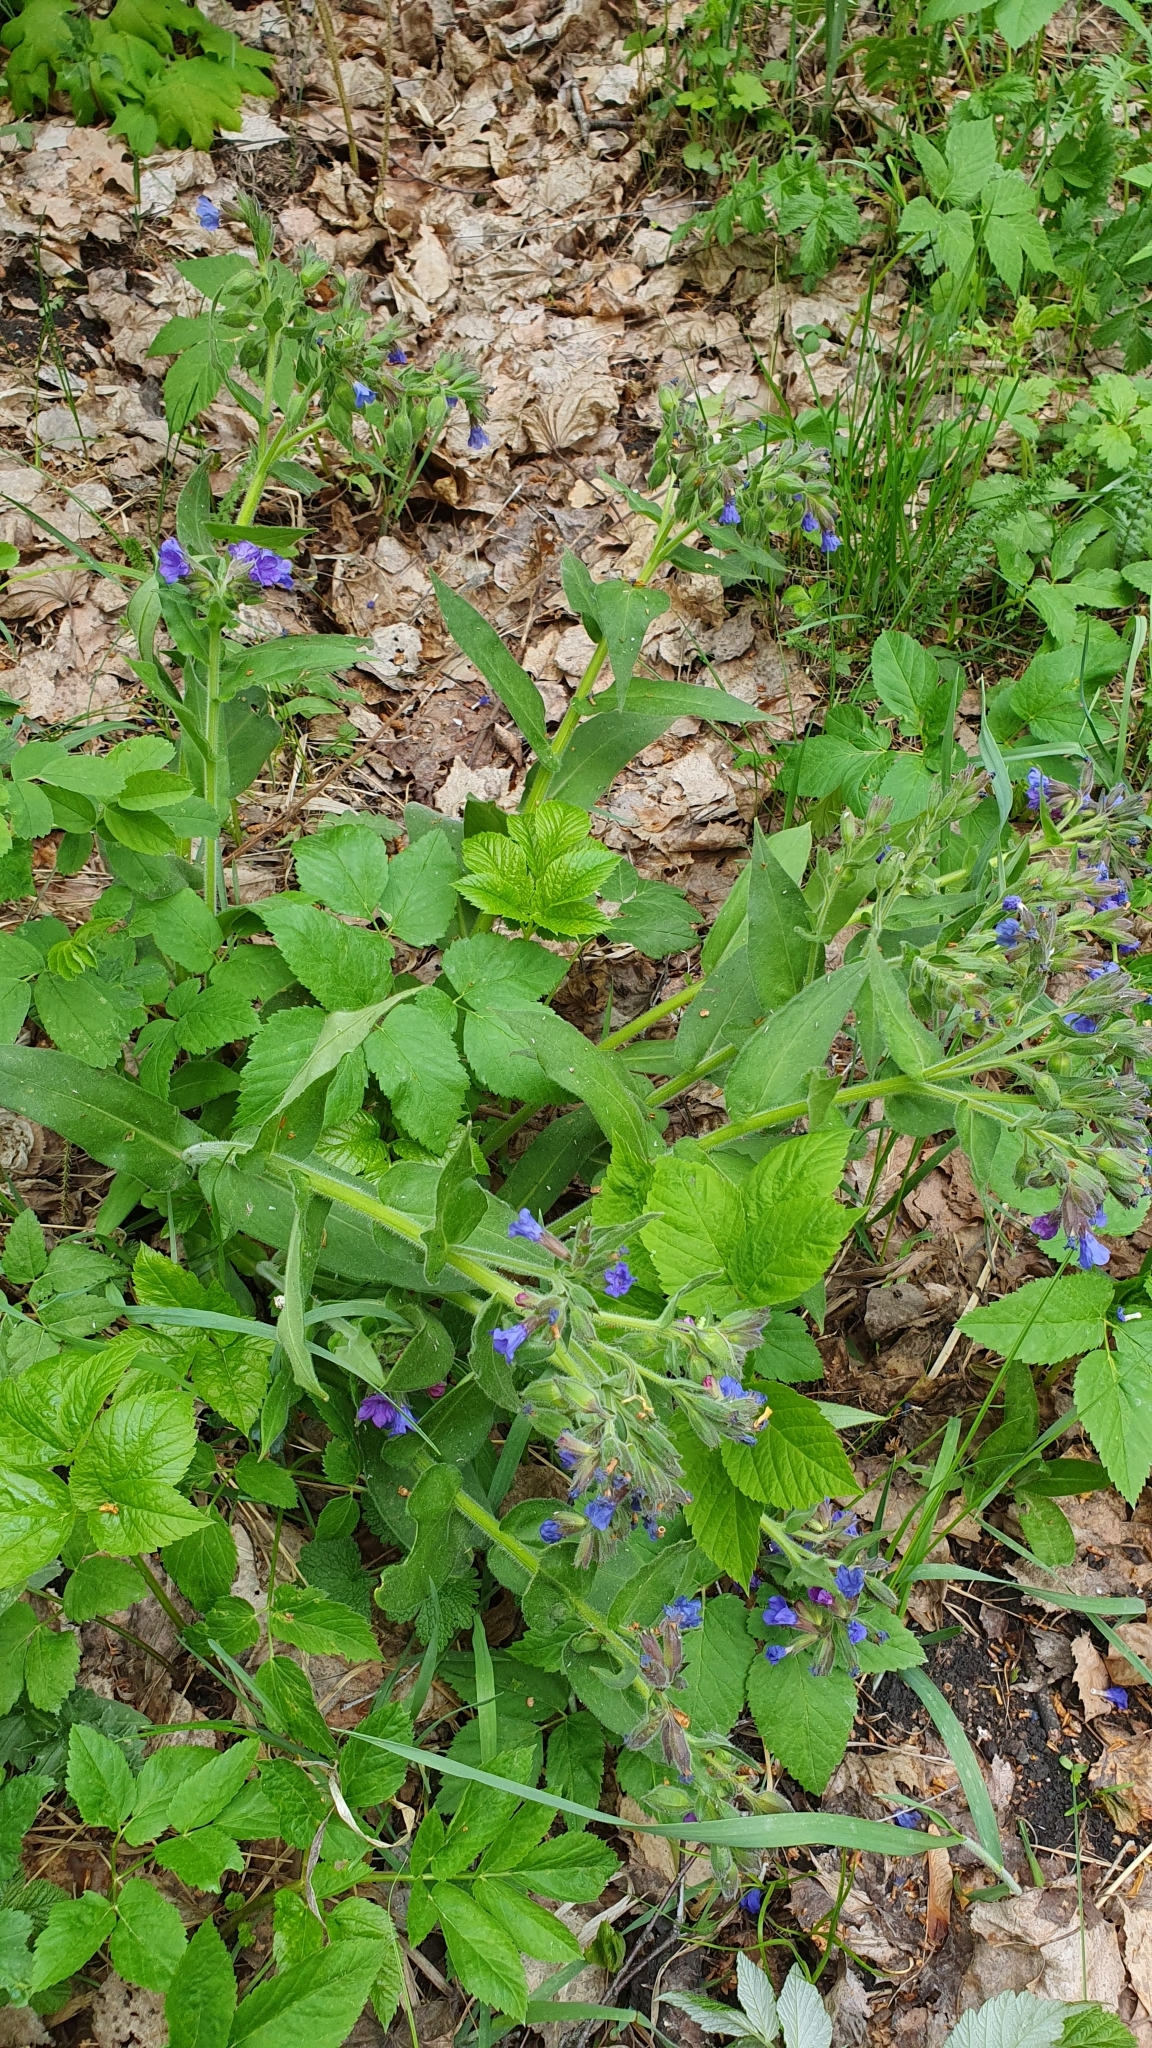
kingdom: Plantae
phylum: Tracheophyta
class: Magnoliopsida
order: Boraginales
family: Boraginaceae
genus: Pulmonaria
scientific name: Pulmonaria mollis
